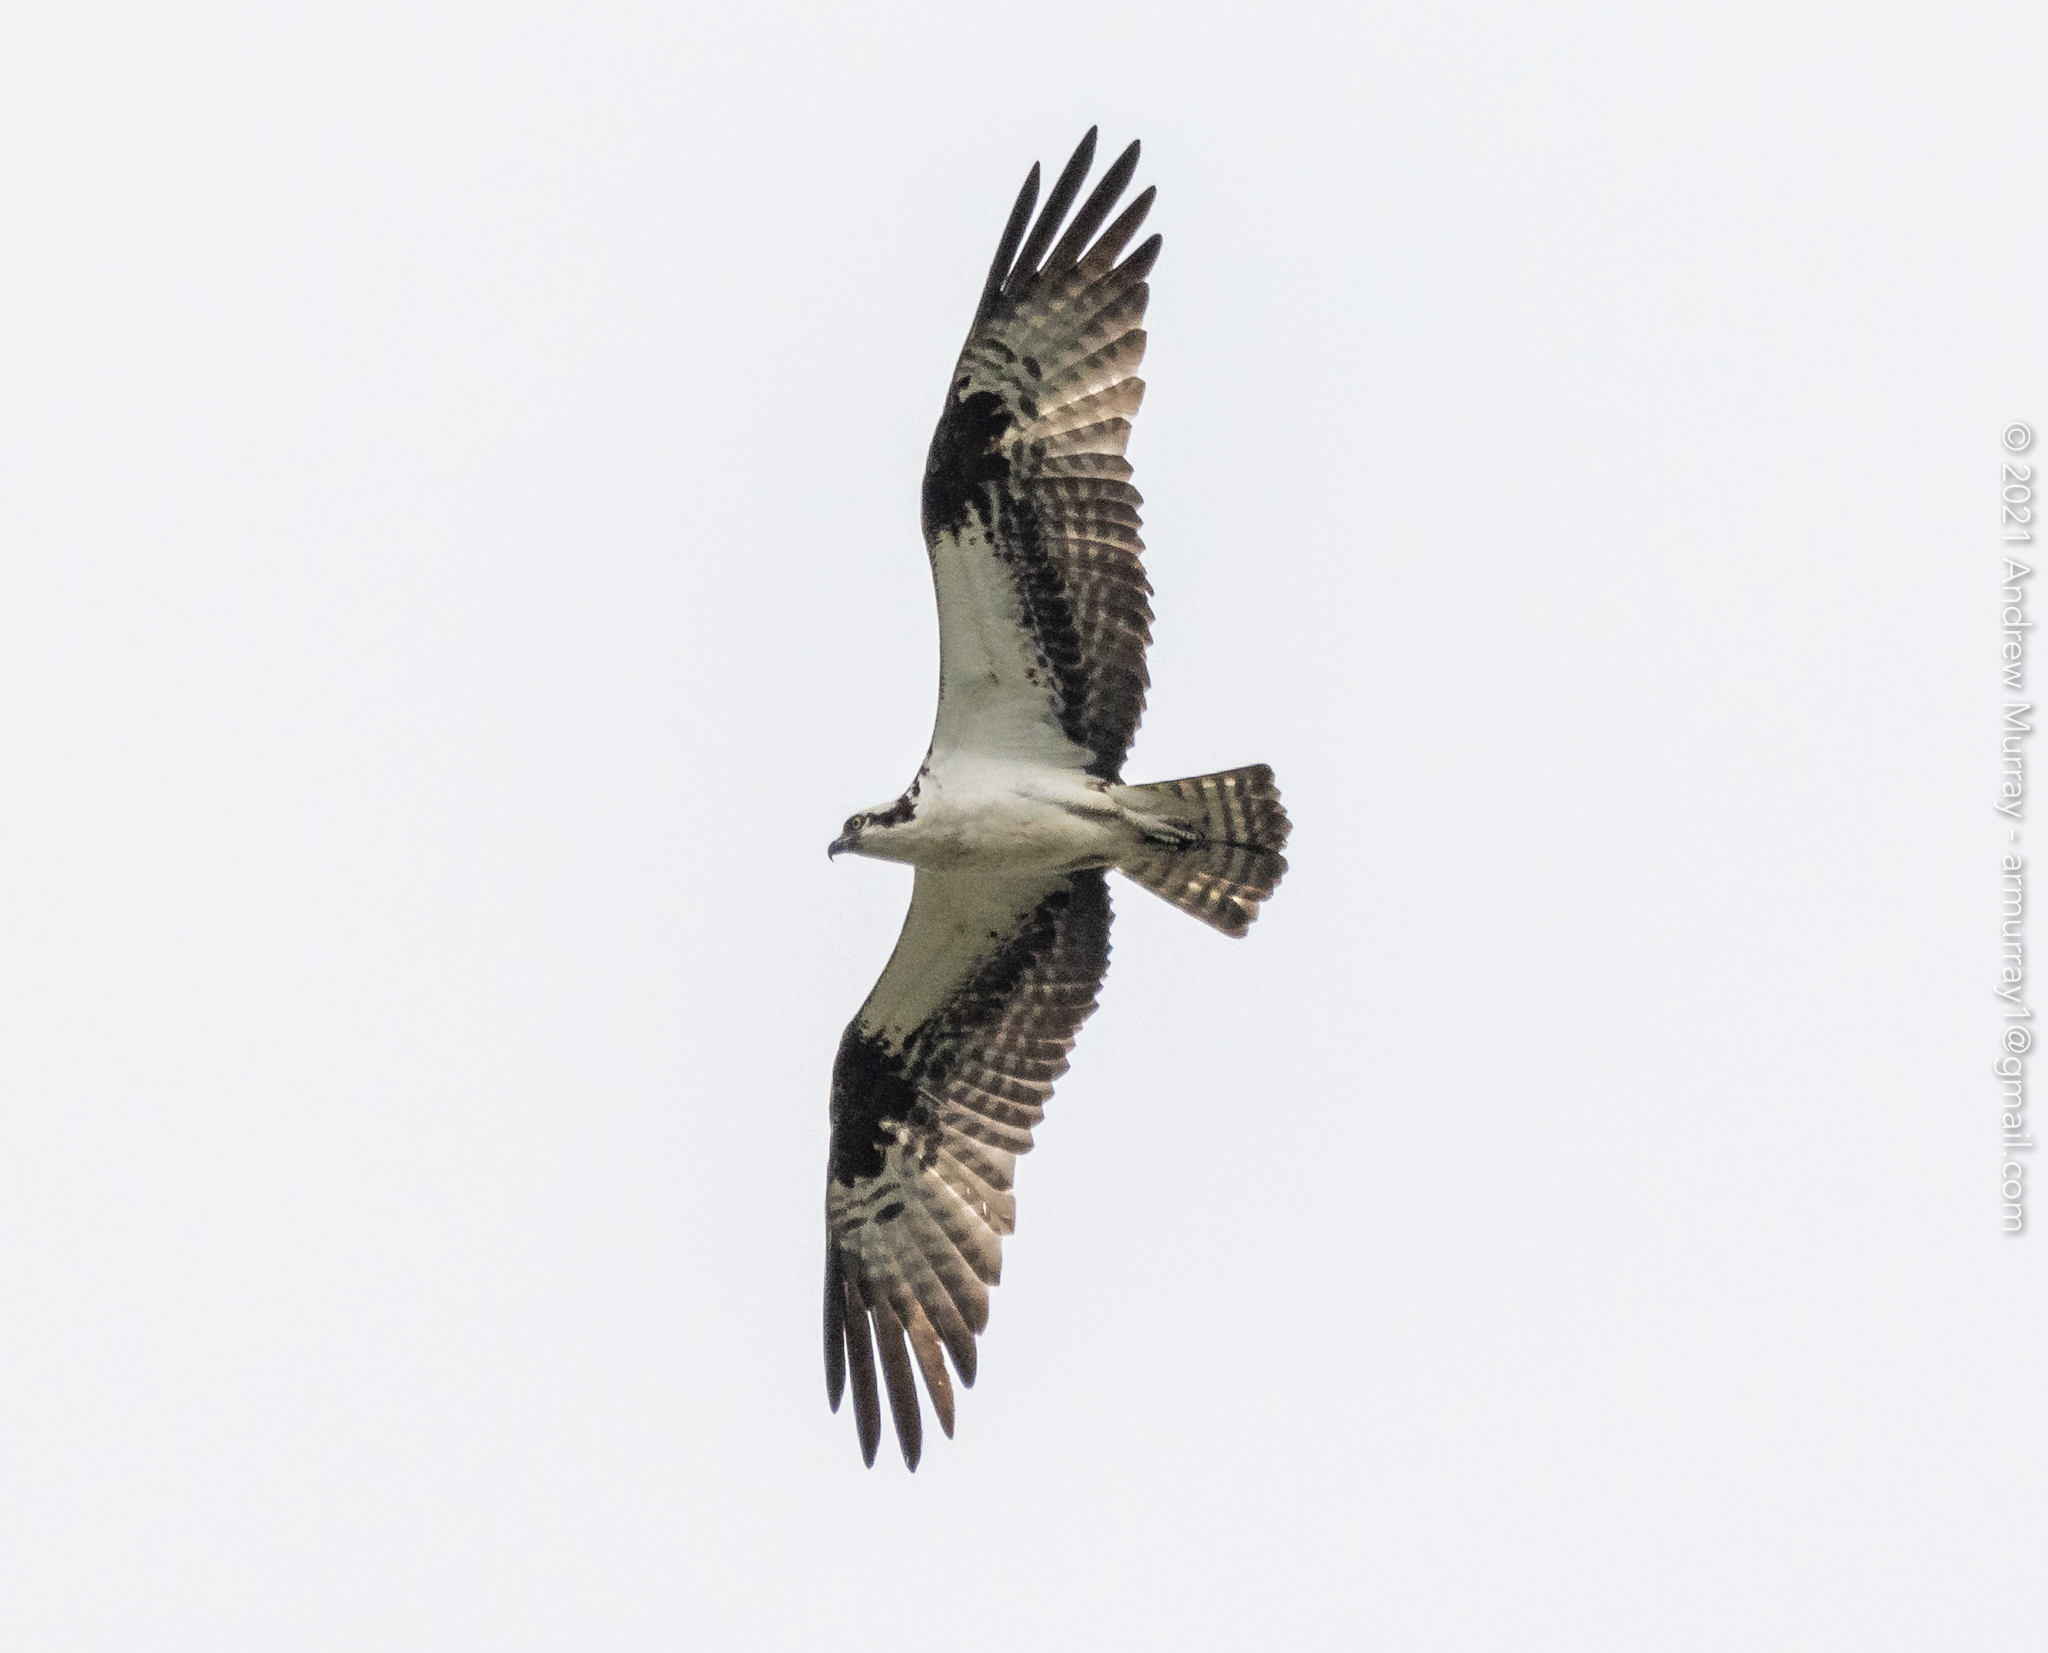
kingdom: Animalia
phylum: Chordata
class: Aves
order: Accipitriformes
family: Pandionidae
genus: Pandion
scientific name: Pandion haliaetus
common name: Osprey
